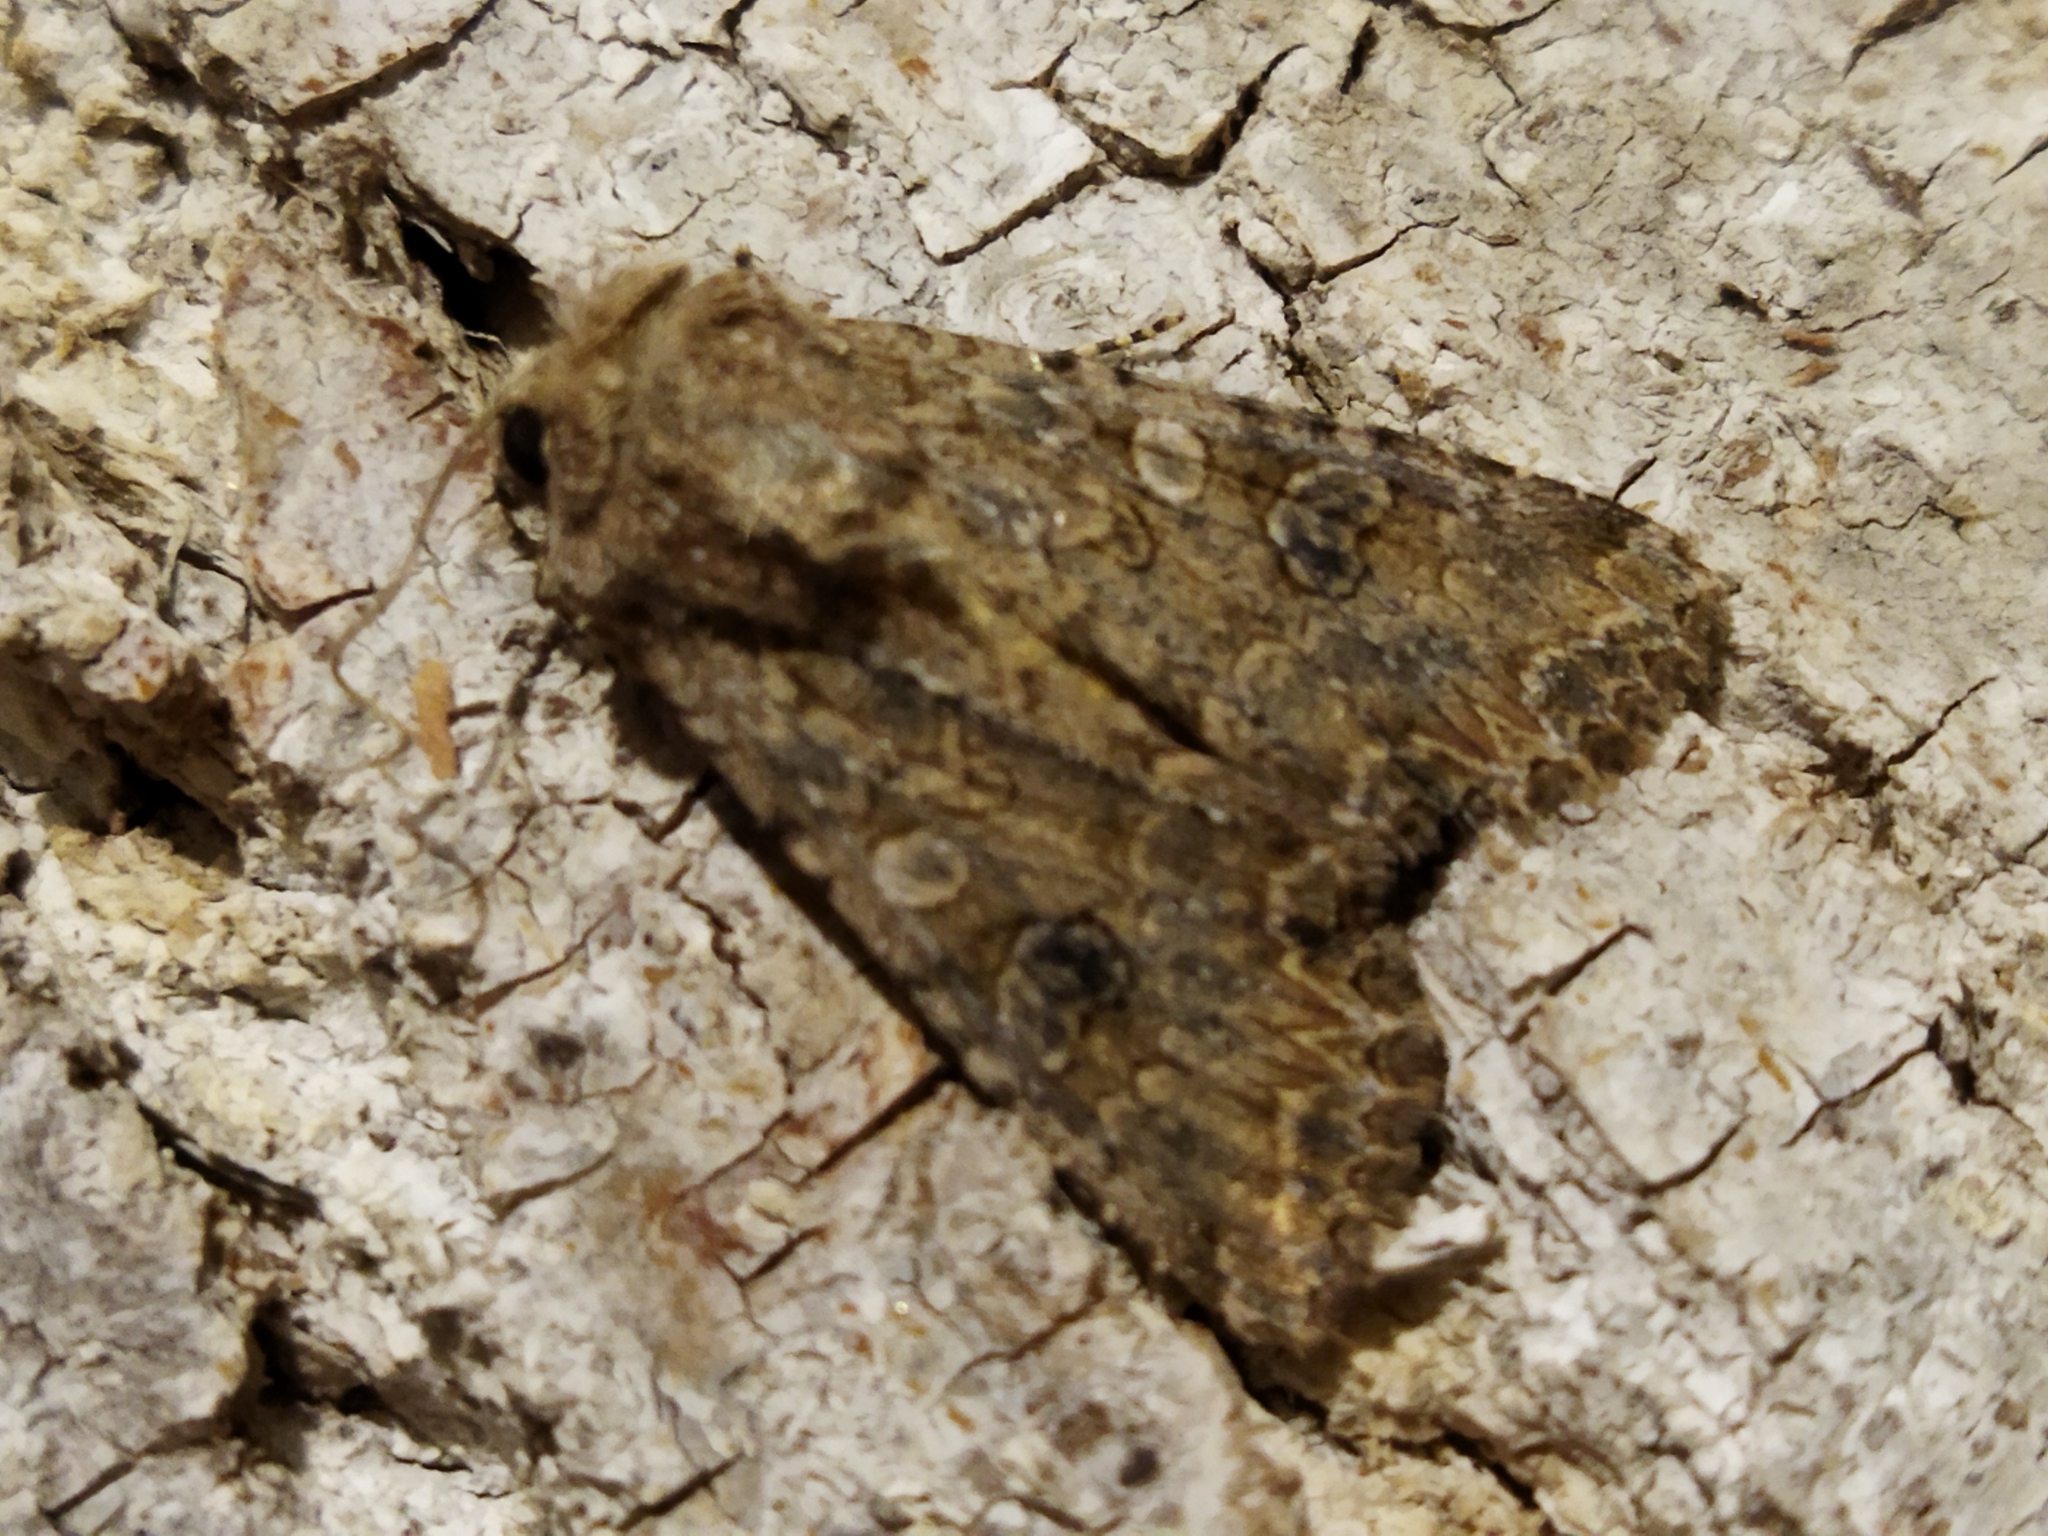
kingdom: Animalia
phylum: Arthropoda
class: Insecta
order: Lepidoptera
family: Noctuidae
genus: Anarta
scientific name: Anarta trifolii
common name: Clover cutworm moth
